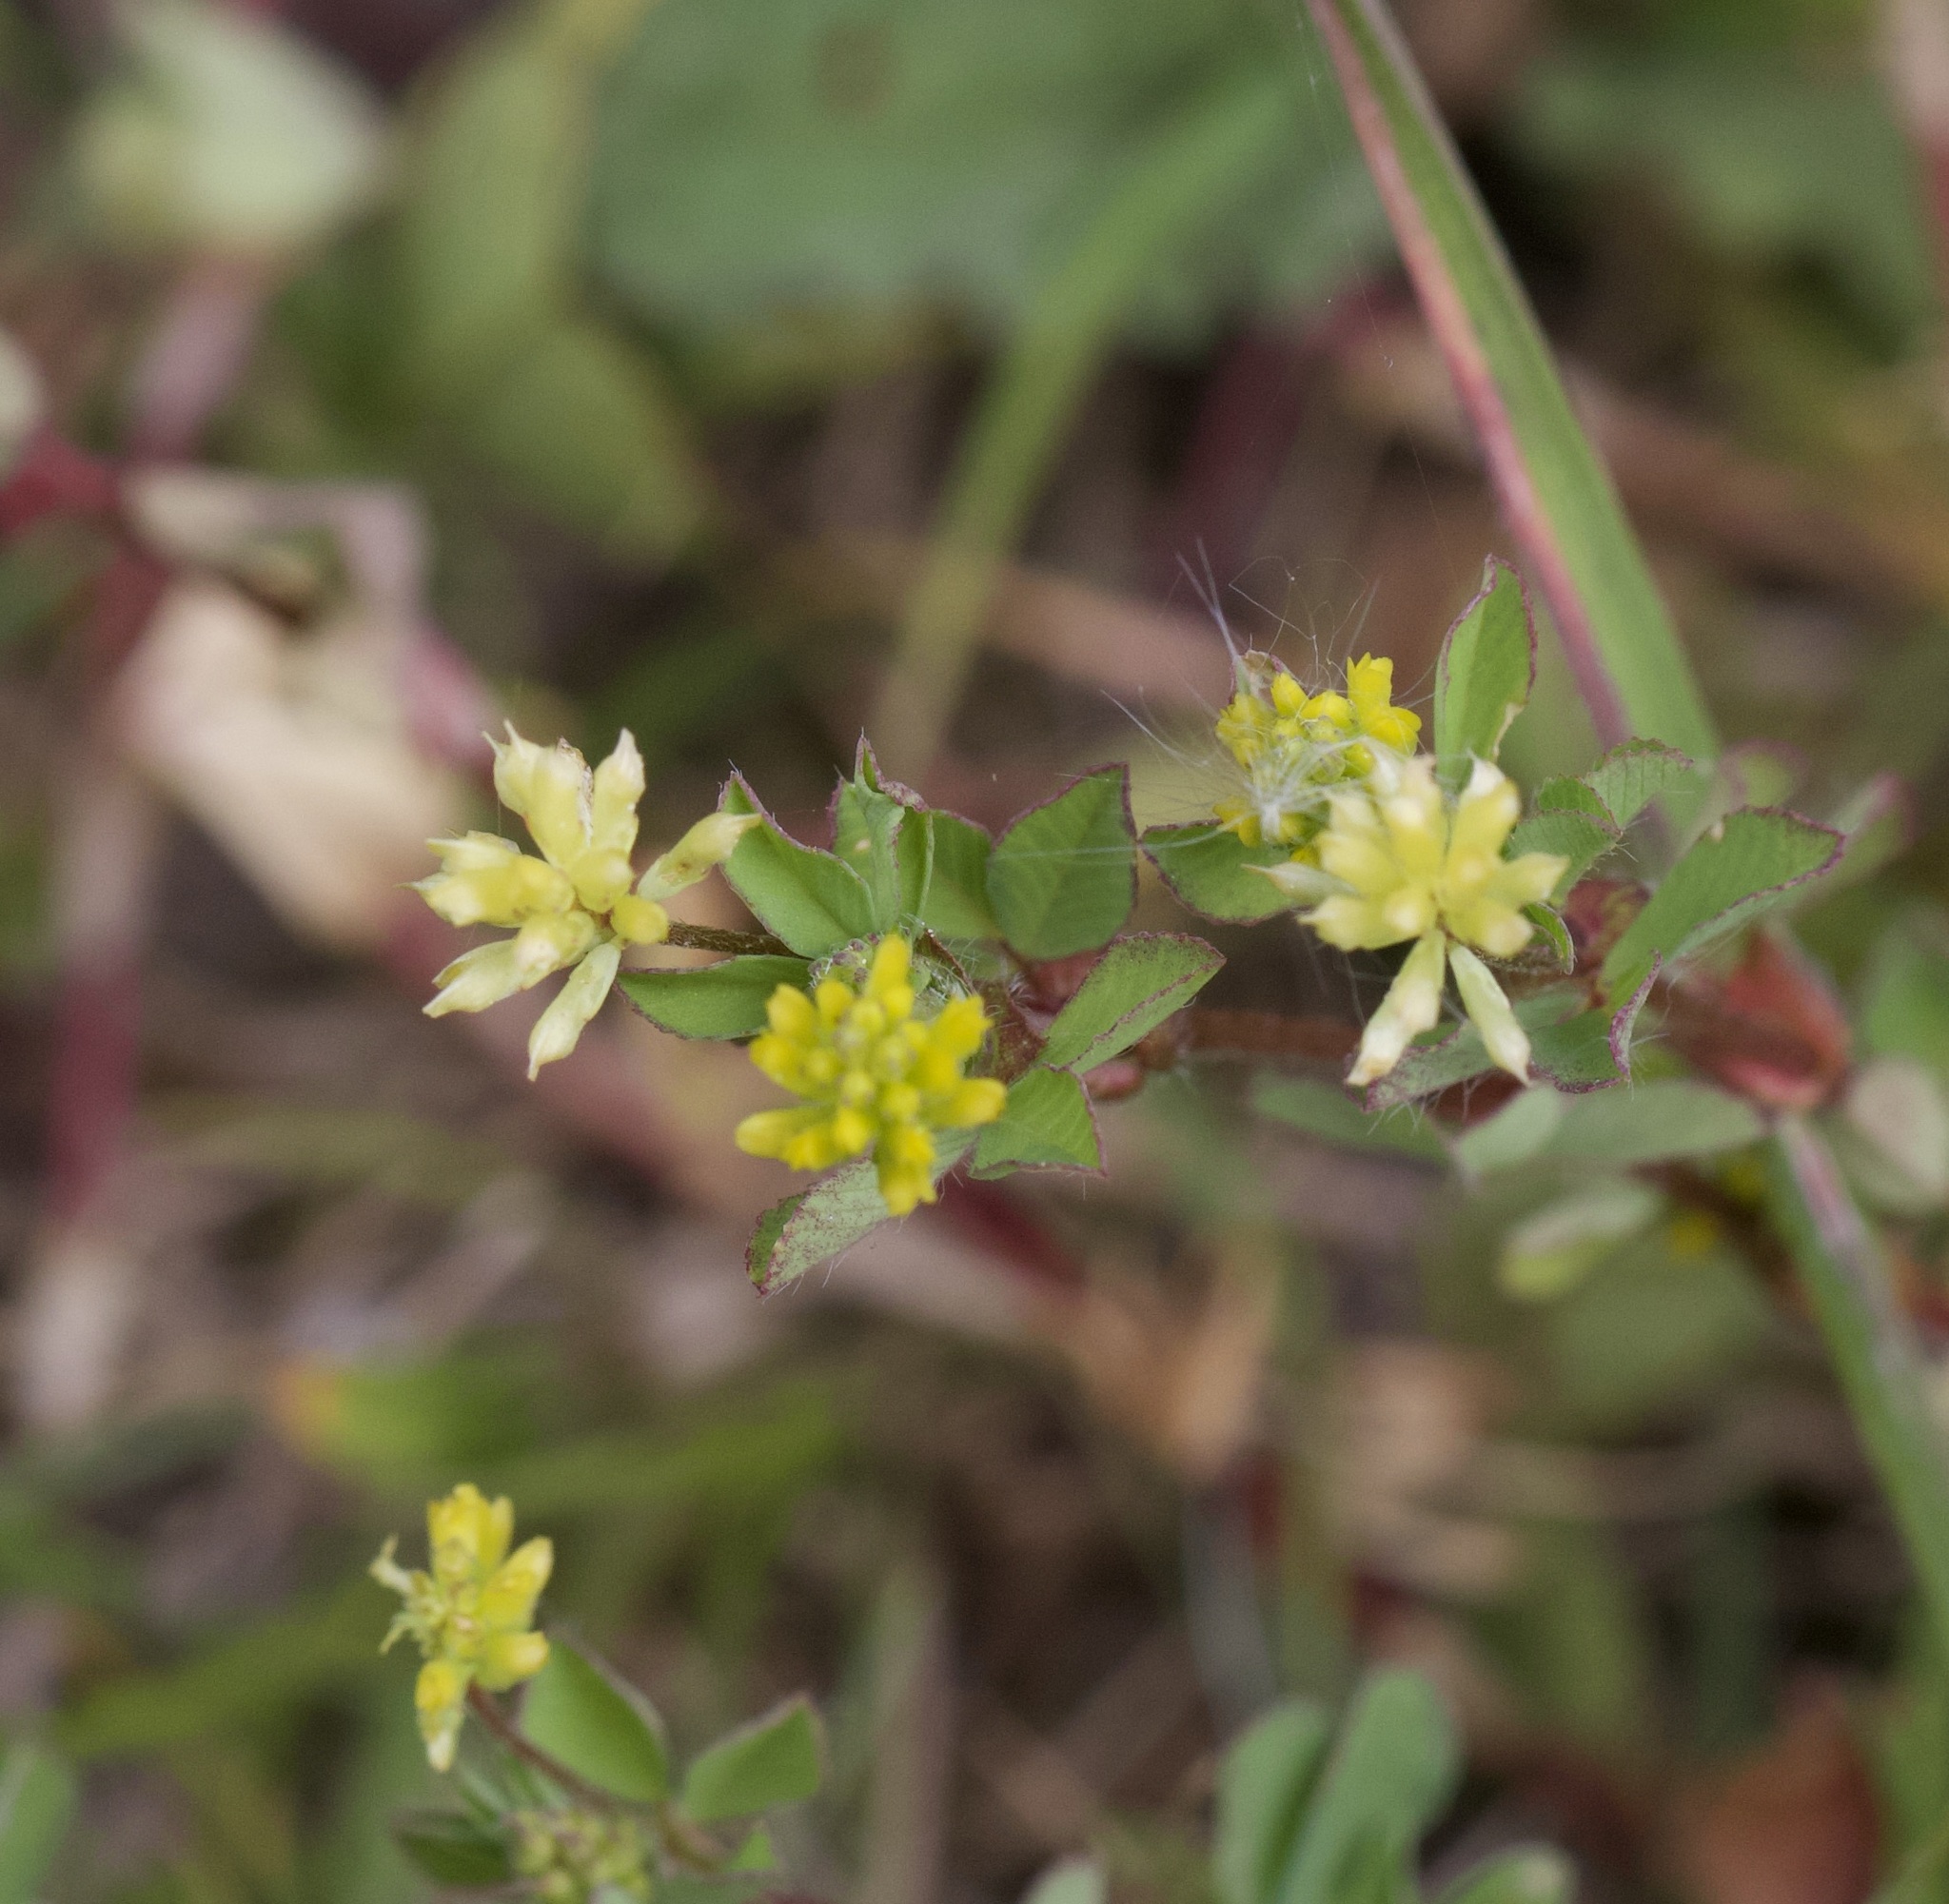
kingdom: Plantae
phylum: Tracheophyta
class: Magnoliopsida
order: Fabales
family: Fabaceae
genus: Trifolium
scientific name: Trifolium dubium
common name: Suckling clover
